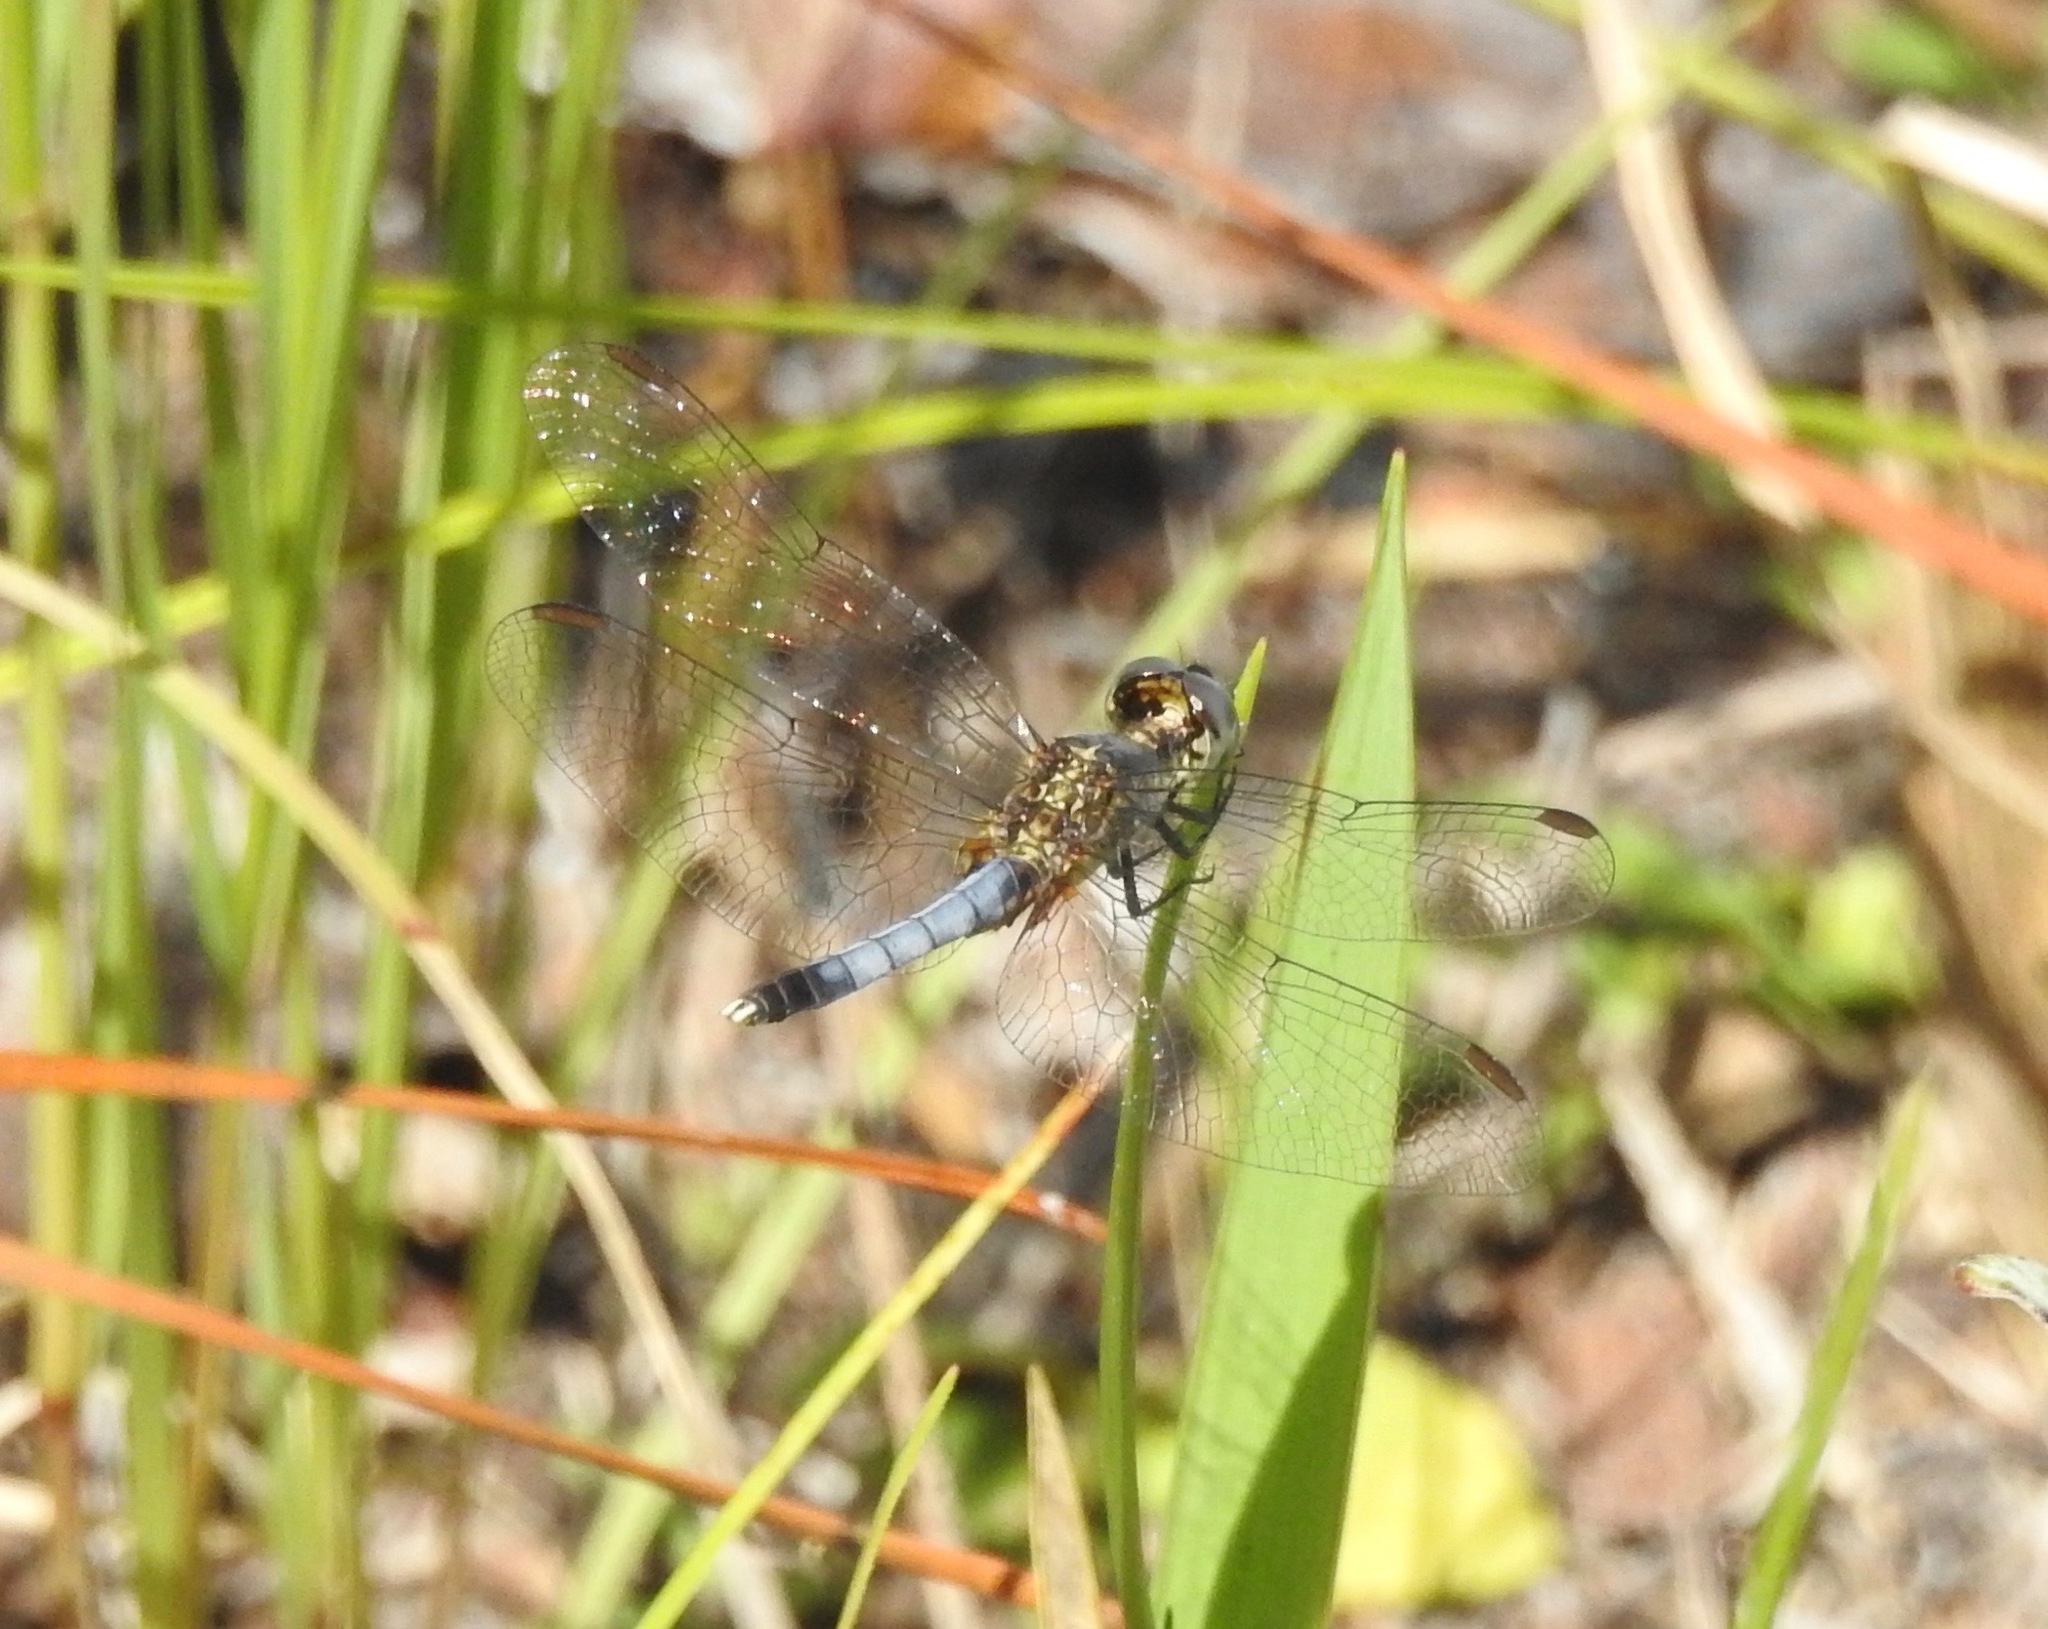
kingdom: Animalia
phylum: Arthropoda
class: Insecta
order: Odonata
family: Libellulidae
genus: Erythrodiplax
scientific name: Erythrodiplax minuscula
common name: Little blue dragonlet
